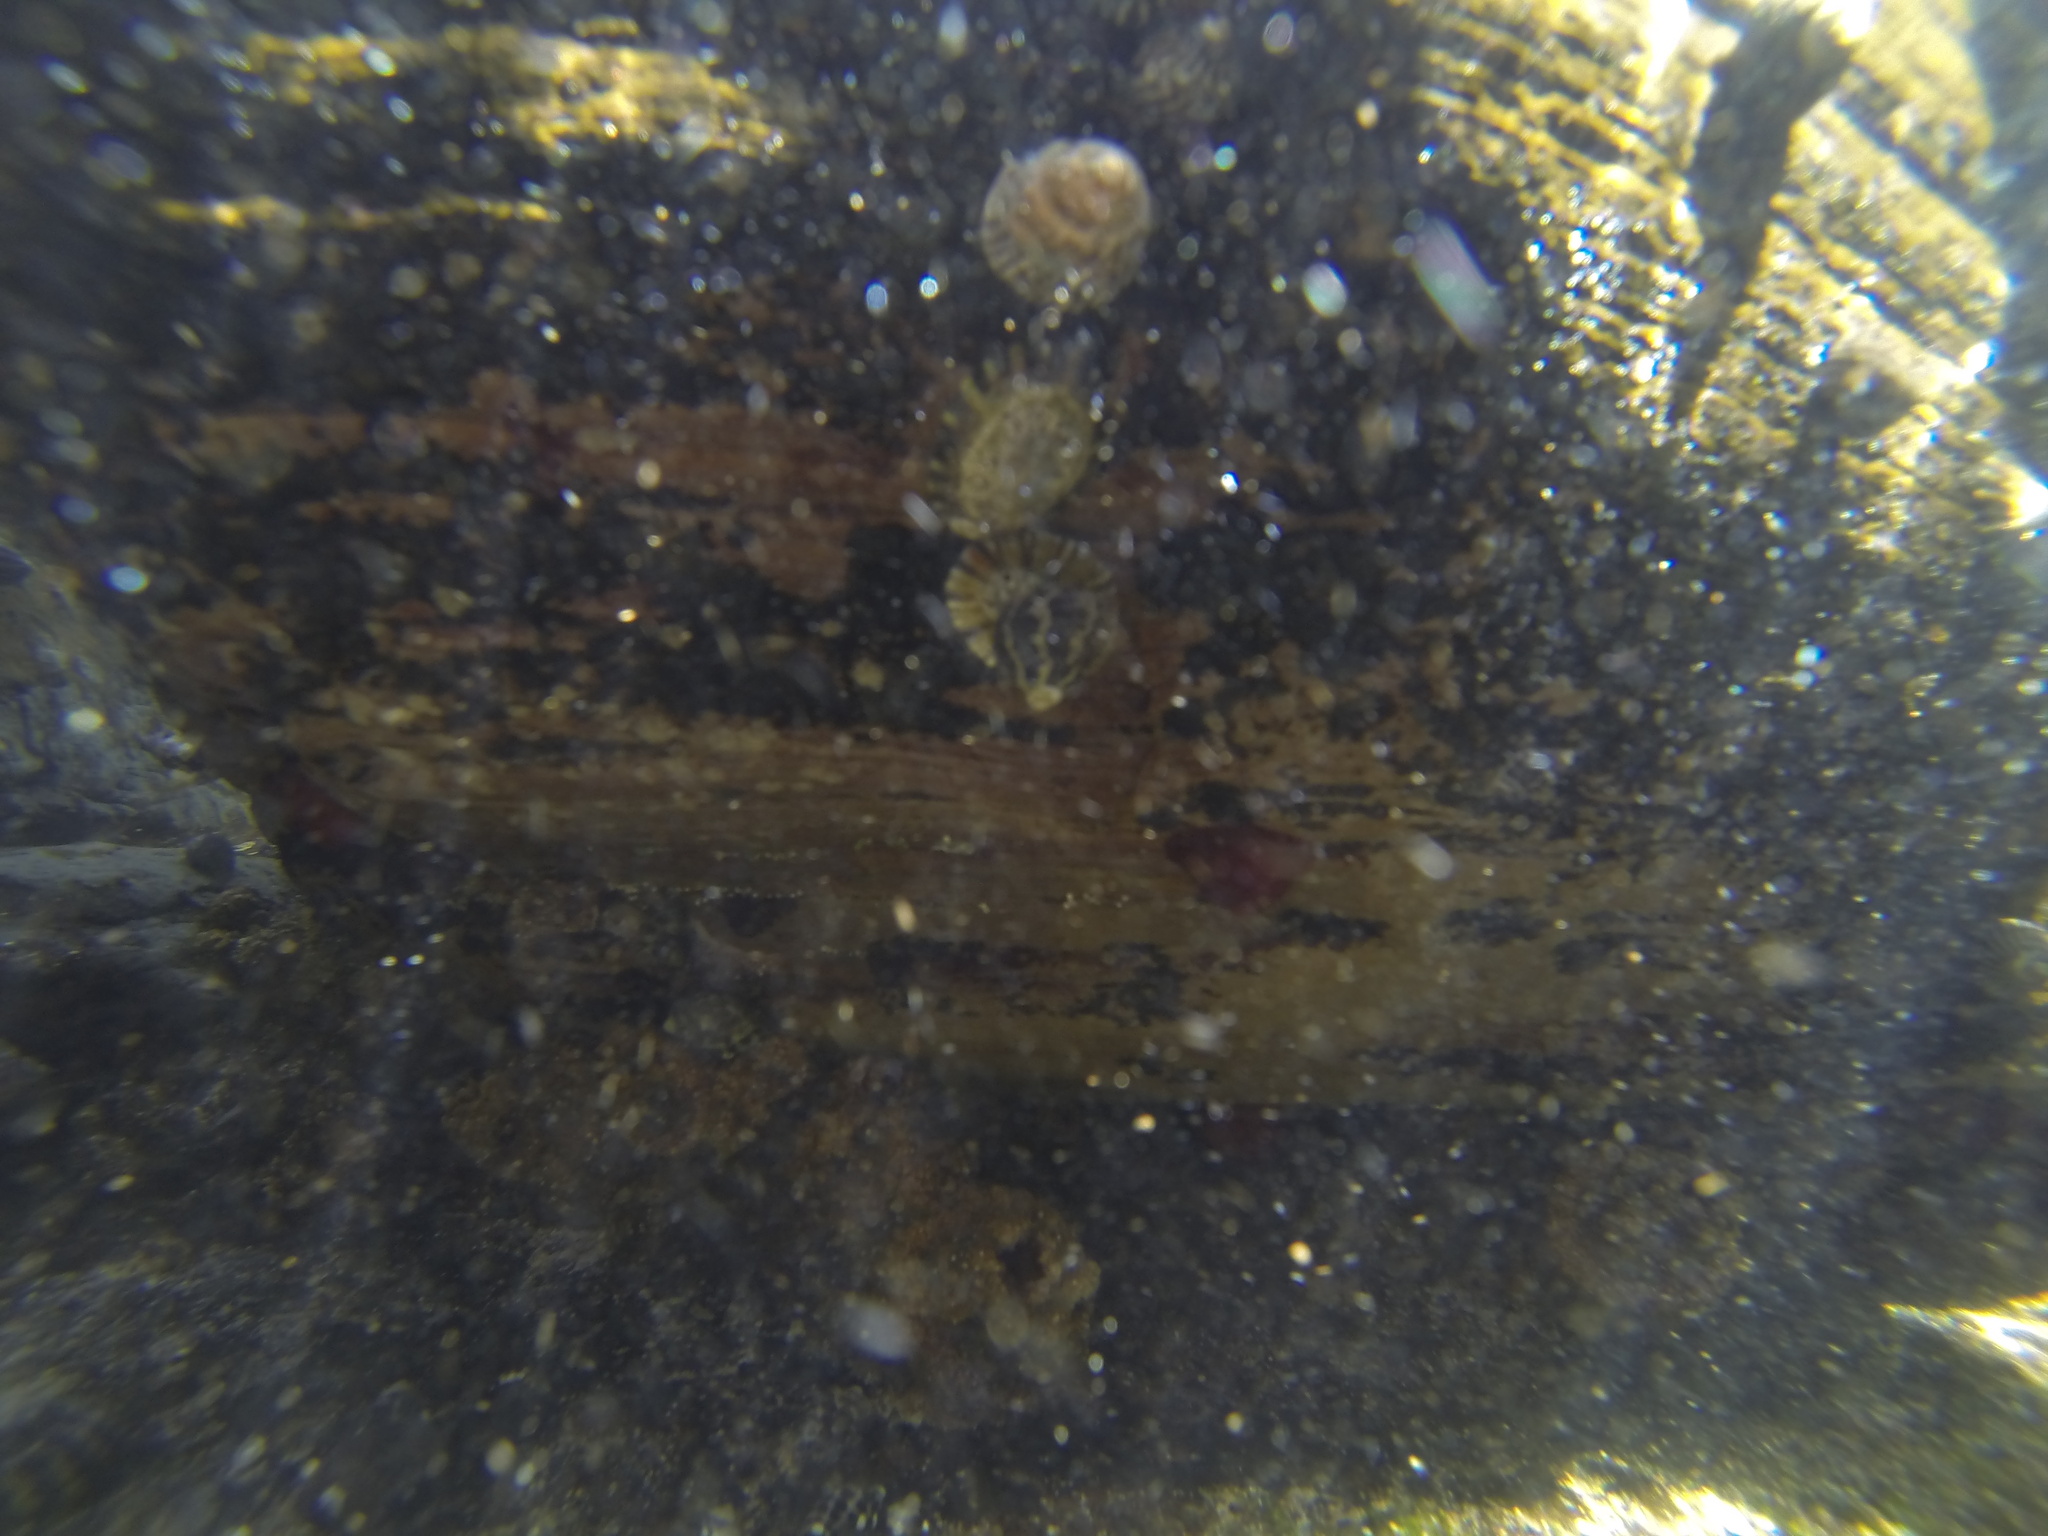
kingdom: Animalia
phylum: Mollusca
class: Gastropoda
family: Nacellidae
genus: Cellana
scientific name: Cellana tramoserica
